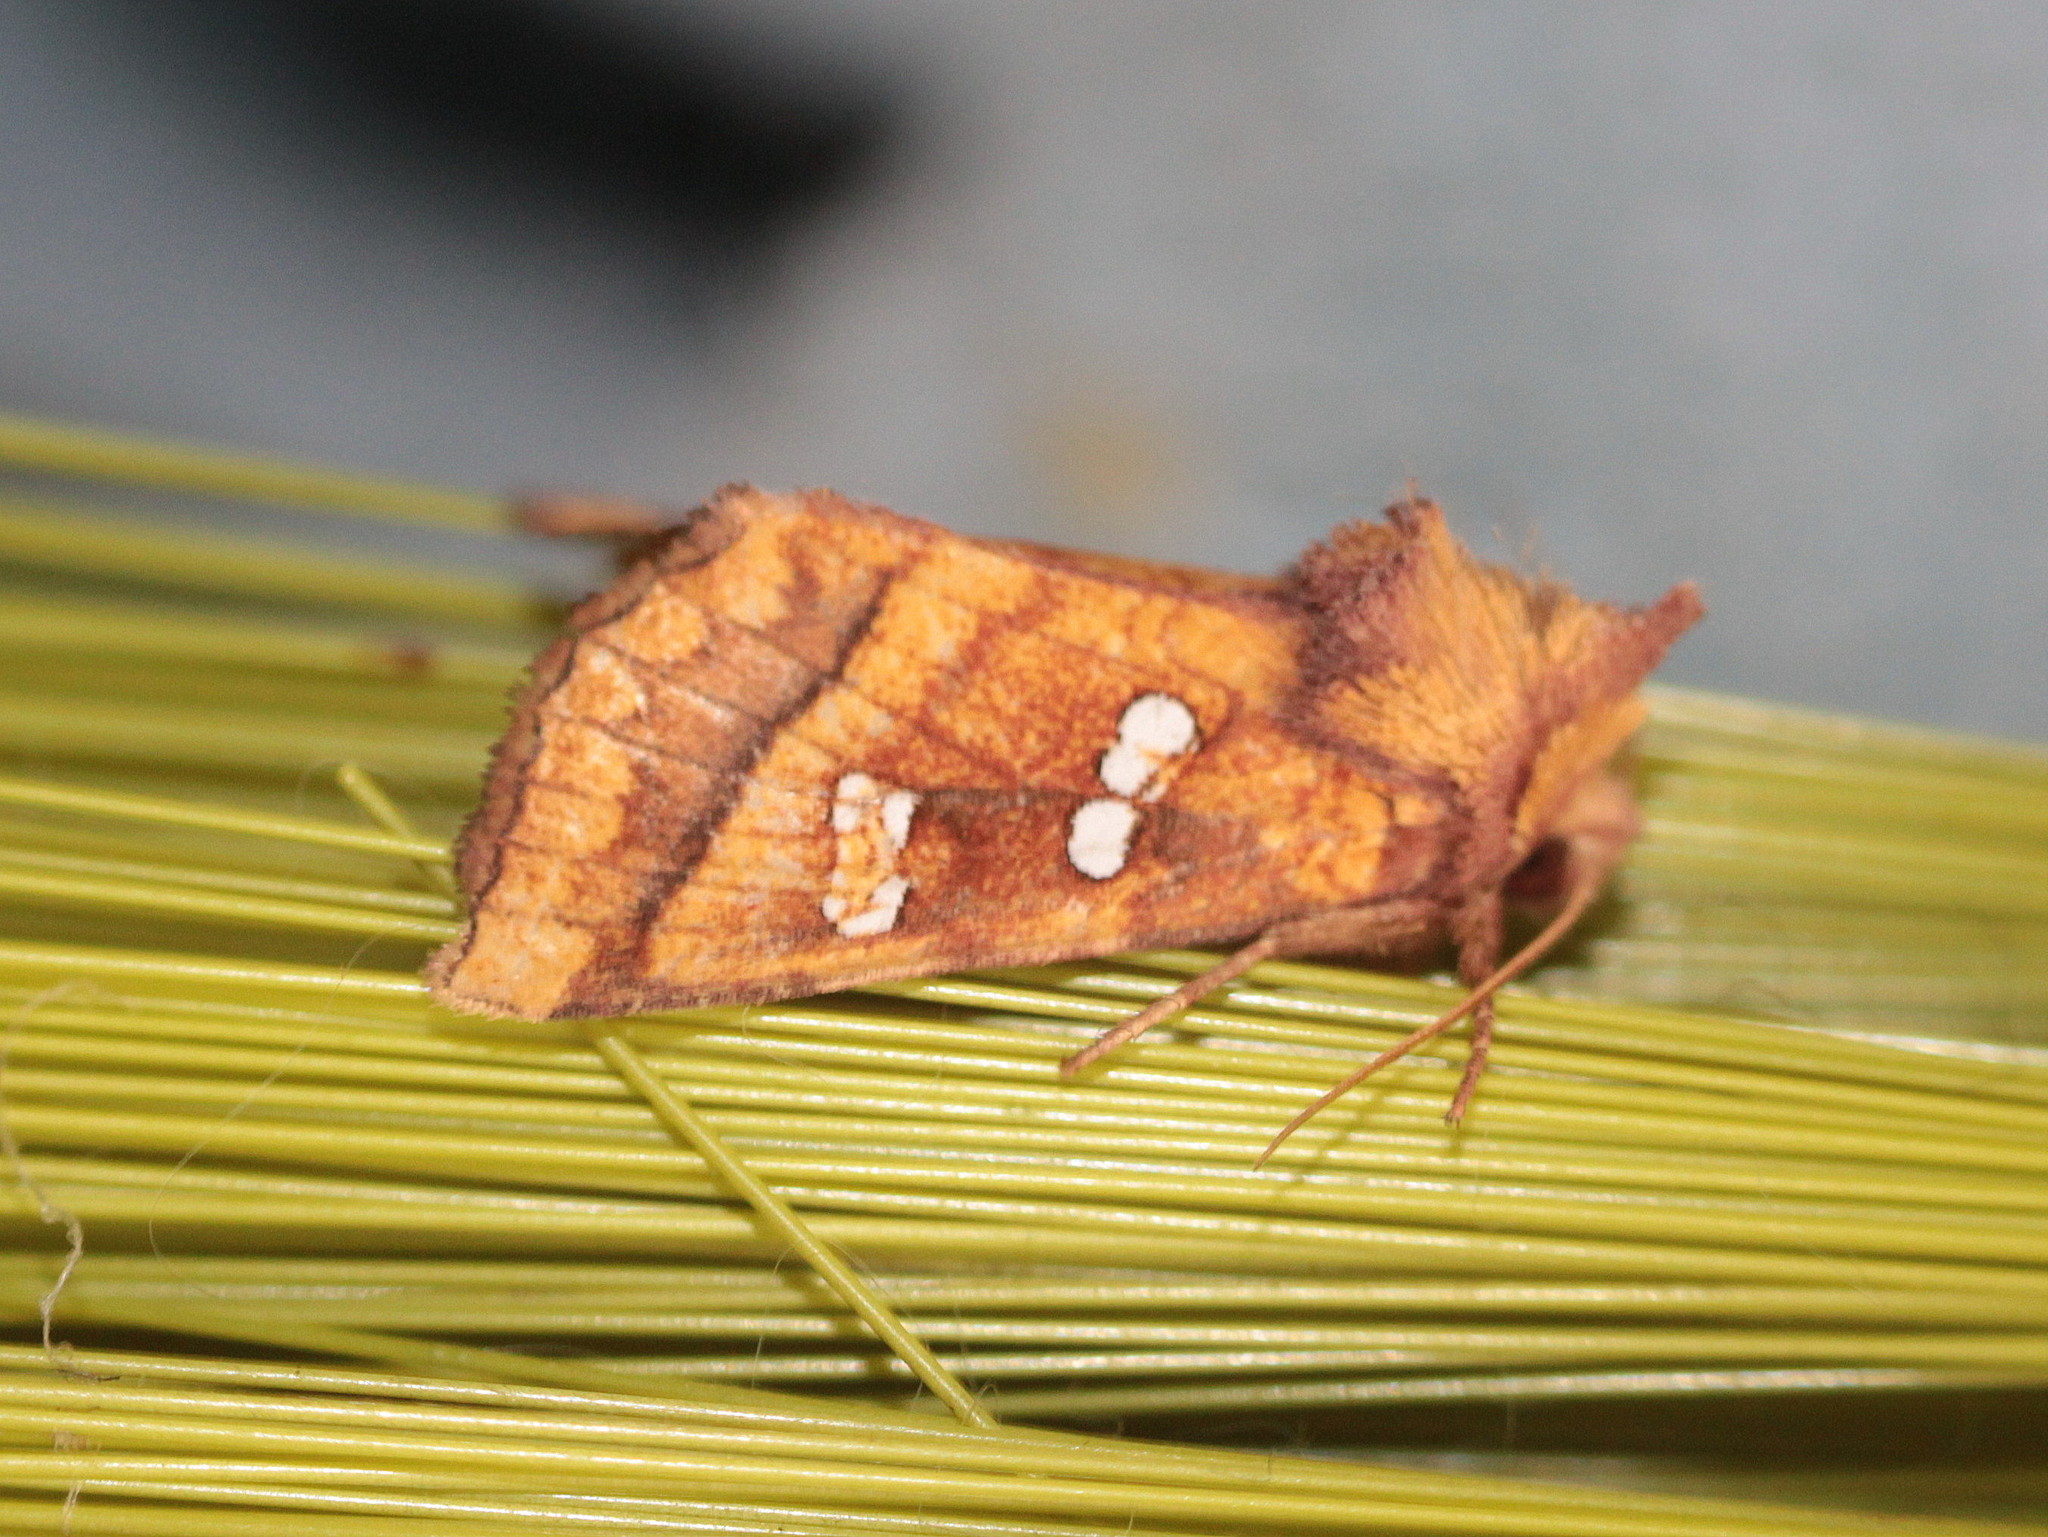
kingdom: Animalia
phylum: Arthropoda
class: Insecta
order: Lepidoptera
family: Noctuidae
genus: Papaipema
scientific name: Papaipema pterisii
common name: Bracken borer moth
